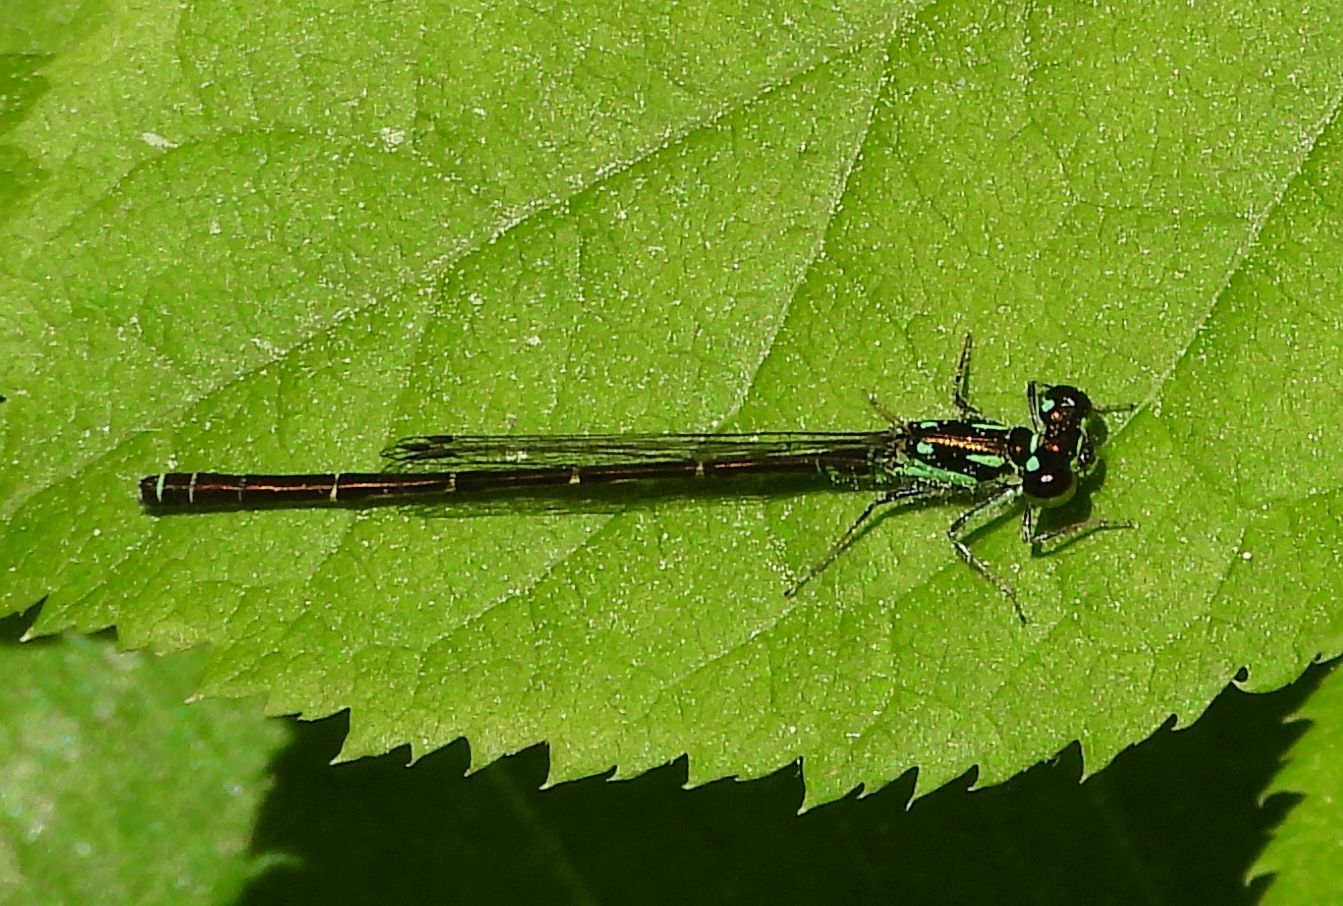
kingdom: Animalia
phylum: Arthropoda
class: Insecta
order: Odonata
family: Coenagrionidae
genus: Ischnura
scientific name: Ischnura posita
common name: Fragile forktail
